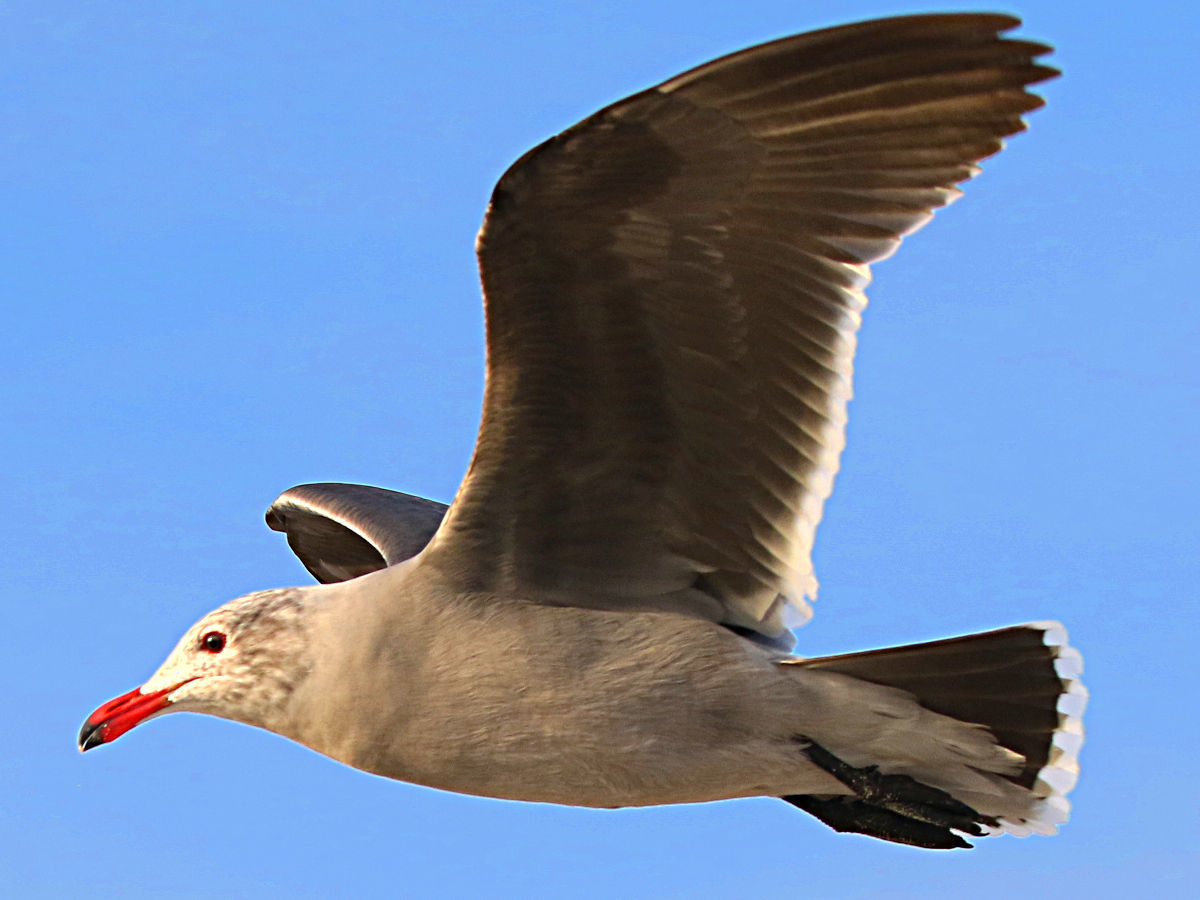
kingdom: Animalia
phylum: Chordata
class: Aves
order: Charadriiformes
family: Laridae
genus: Larus
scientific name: Larus heermanni
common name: Heermann's gull
